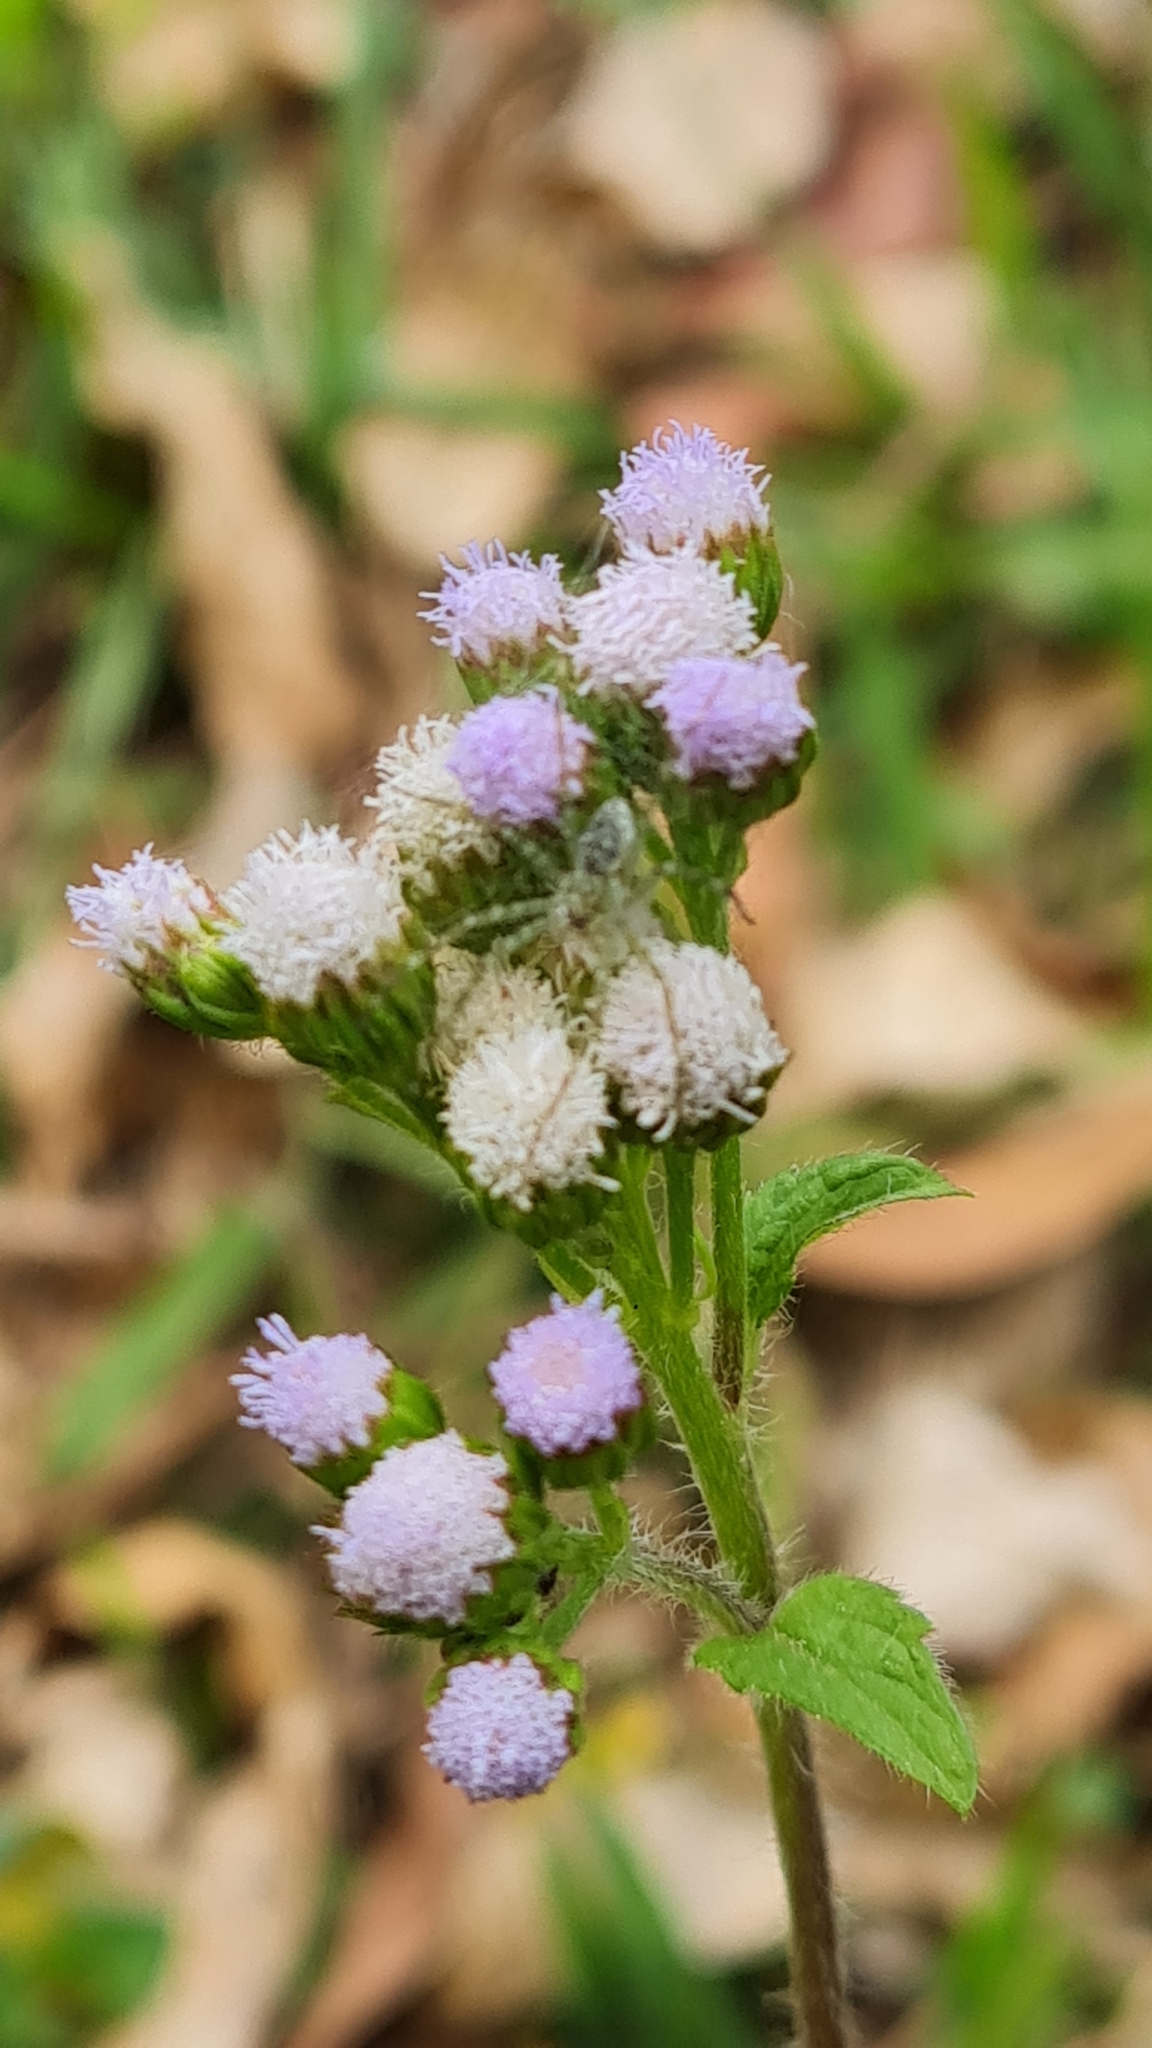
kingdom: Plantae
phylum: Tracheophyta
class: Magnoliopsida
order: Asterales
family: Asteraceae
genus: Ageratum
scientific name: Ageratum conyzoides
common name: Tropical whiteweed
